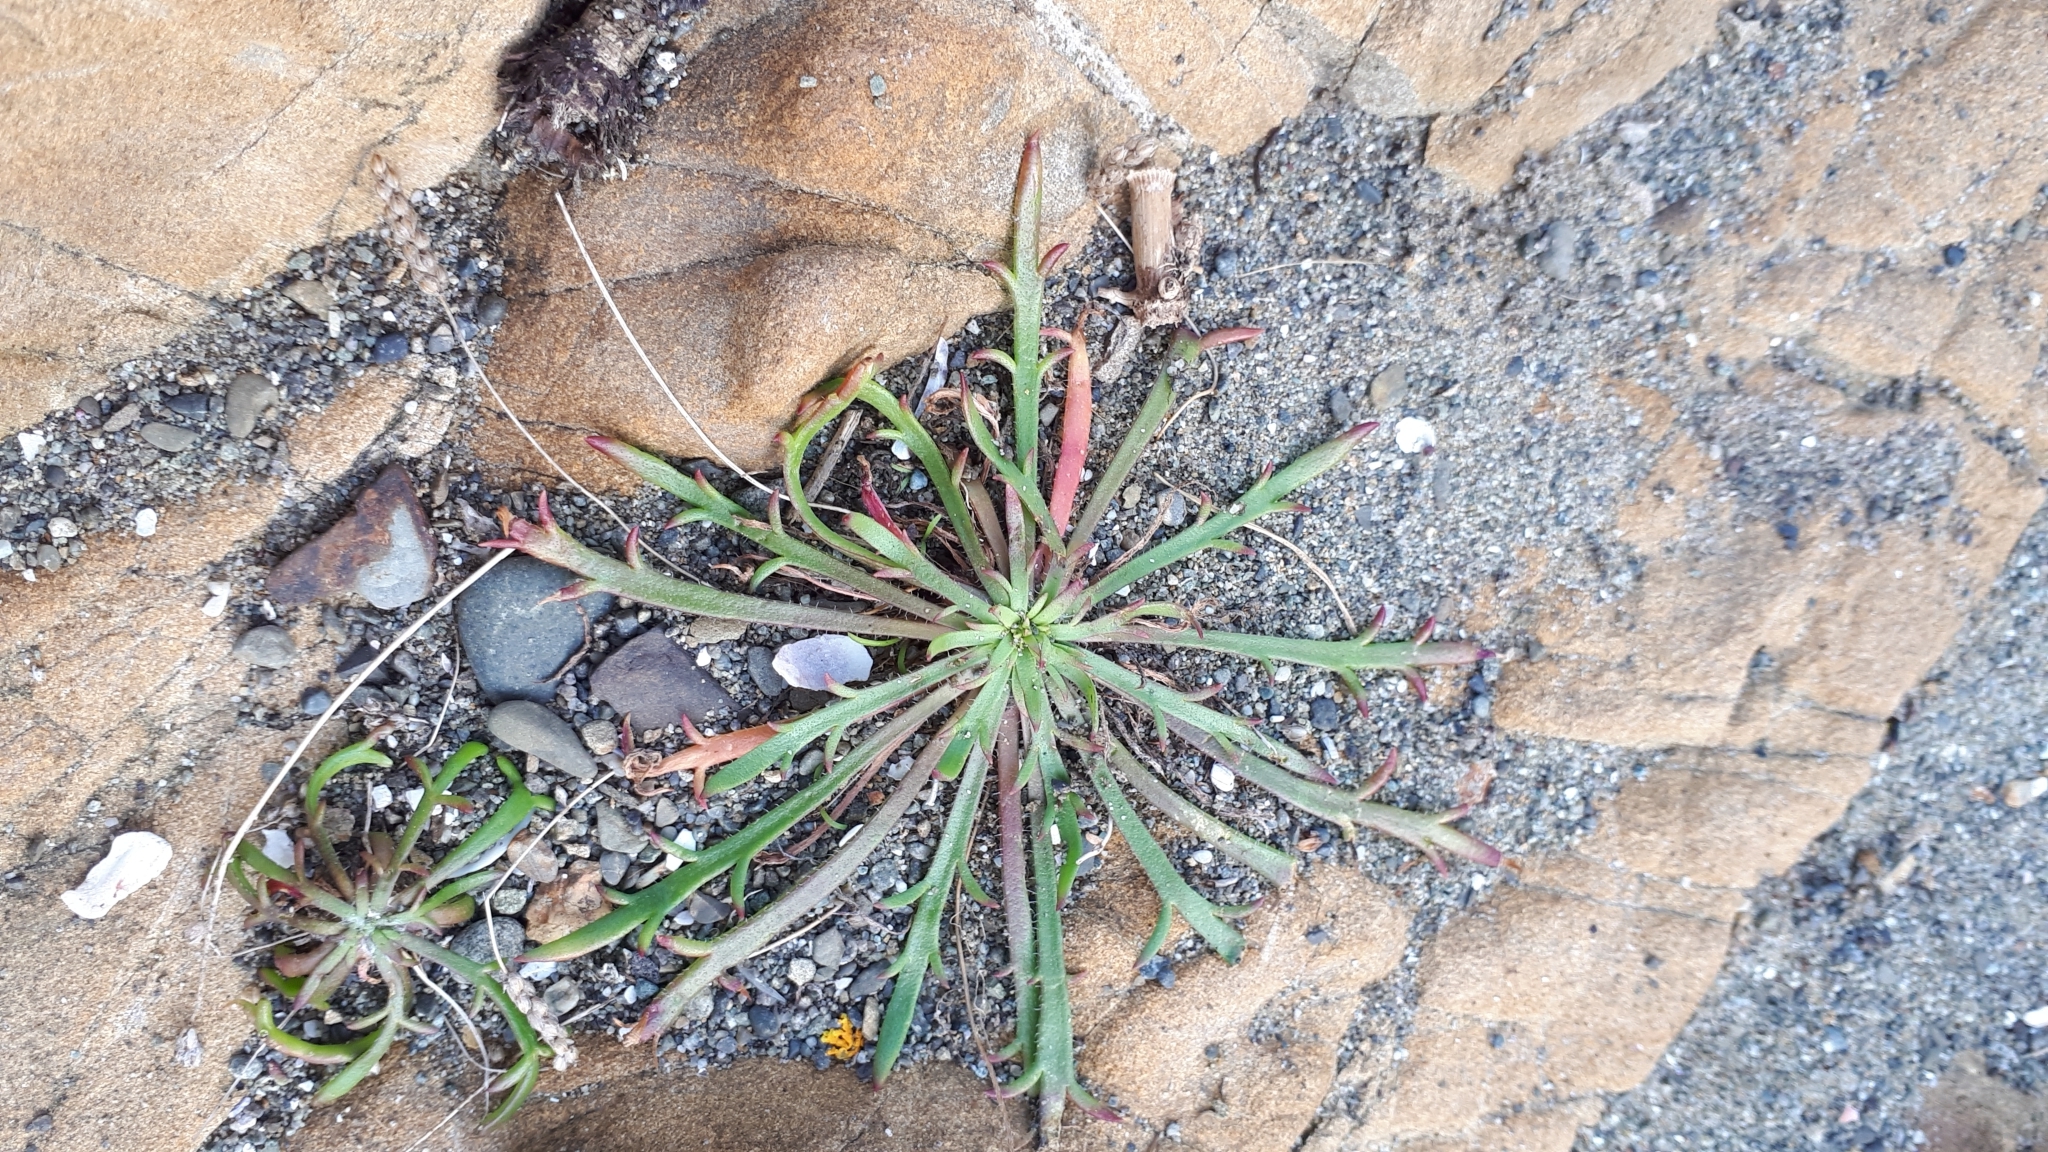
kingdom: Plantae
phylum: Tracheophyta
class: Magnoliopsida
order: Lamiales
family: Plantaginaceae
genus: Plantago
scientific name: Plantago coronopus
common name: Buck's-horn plantain
